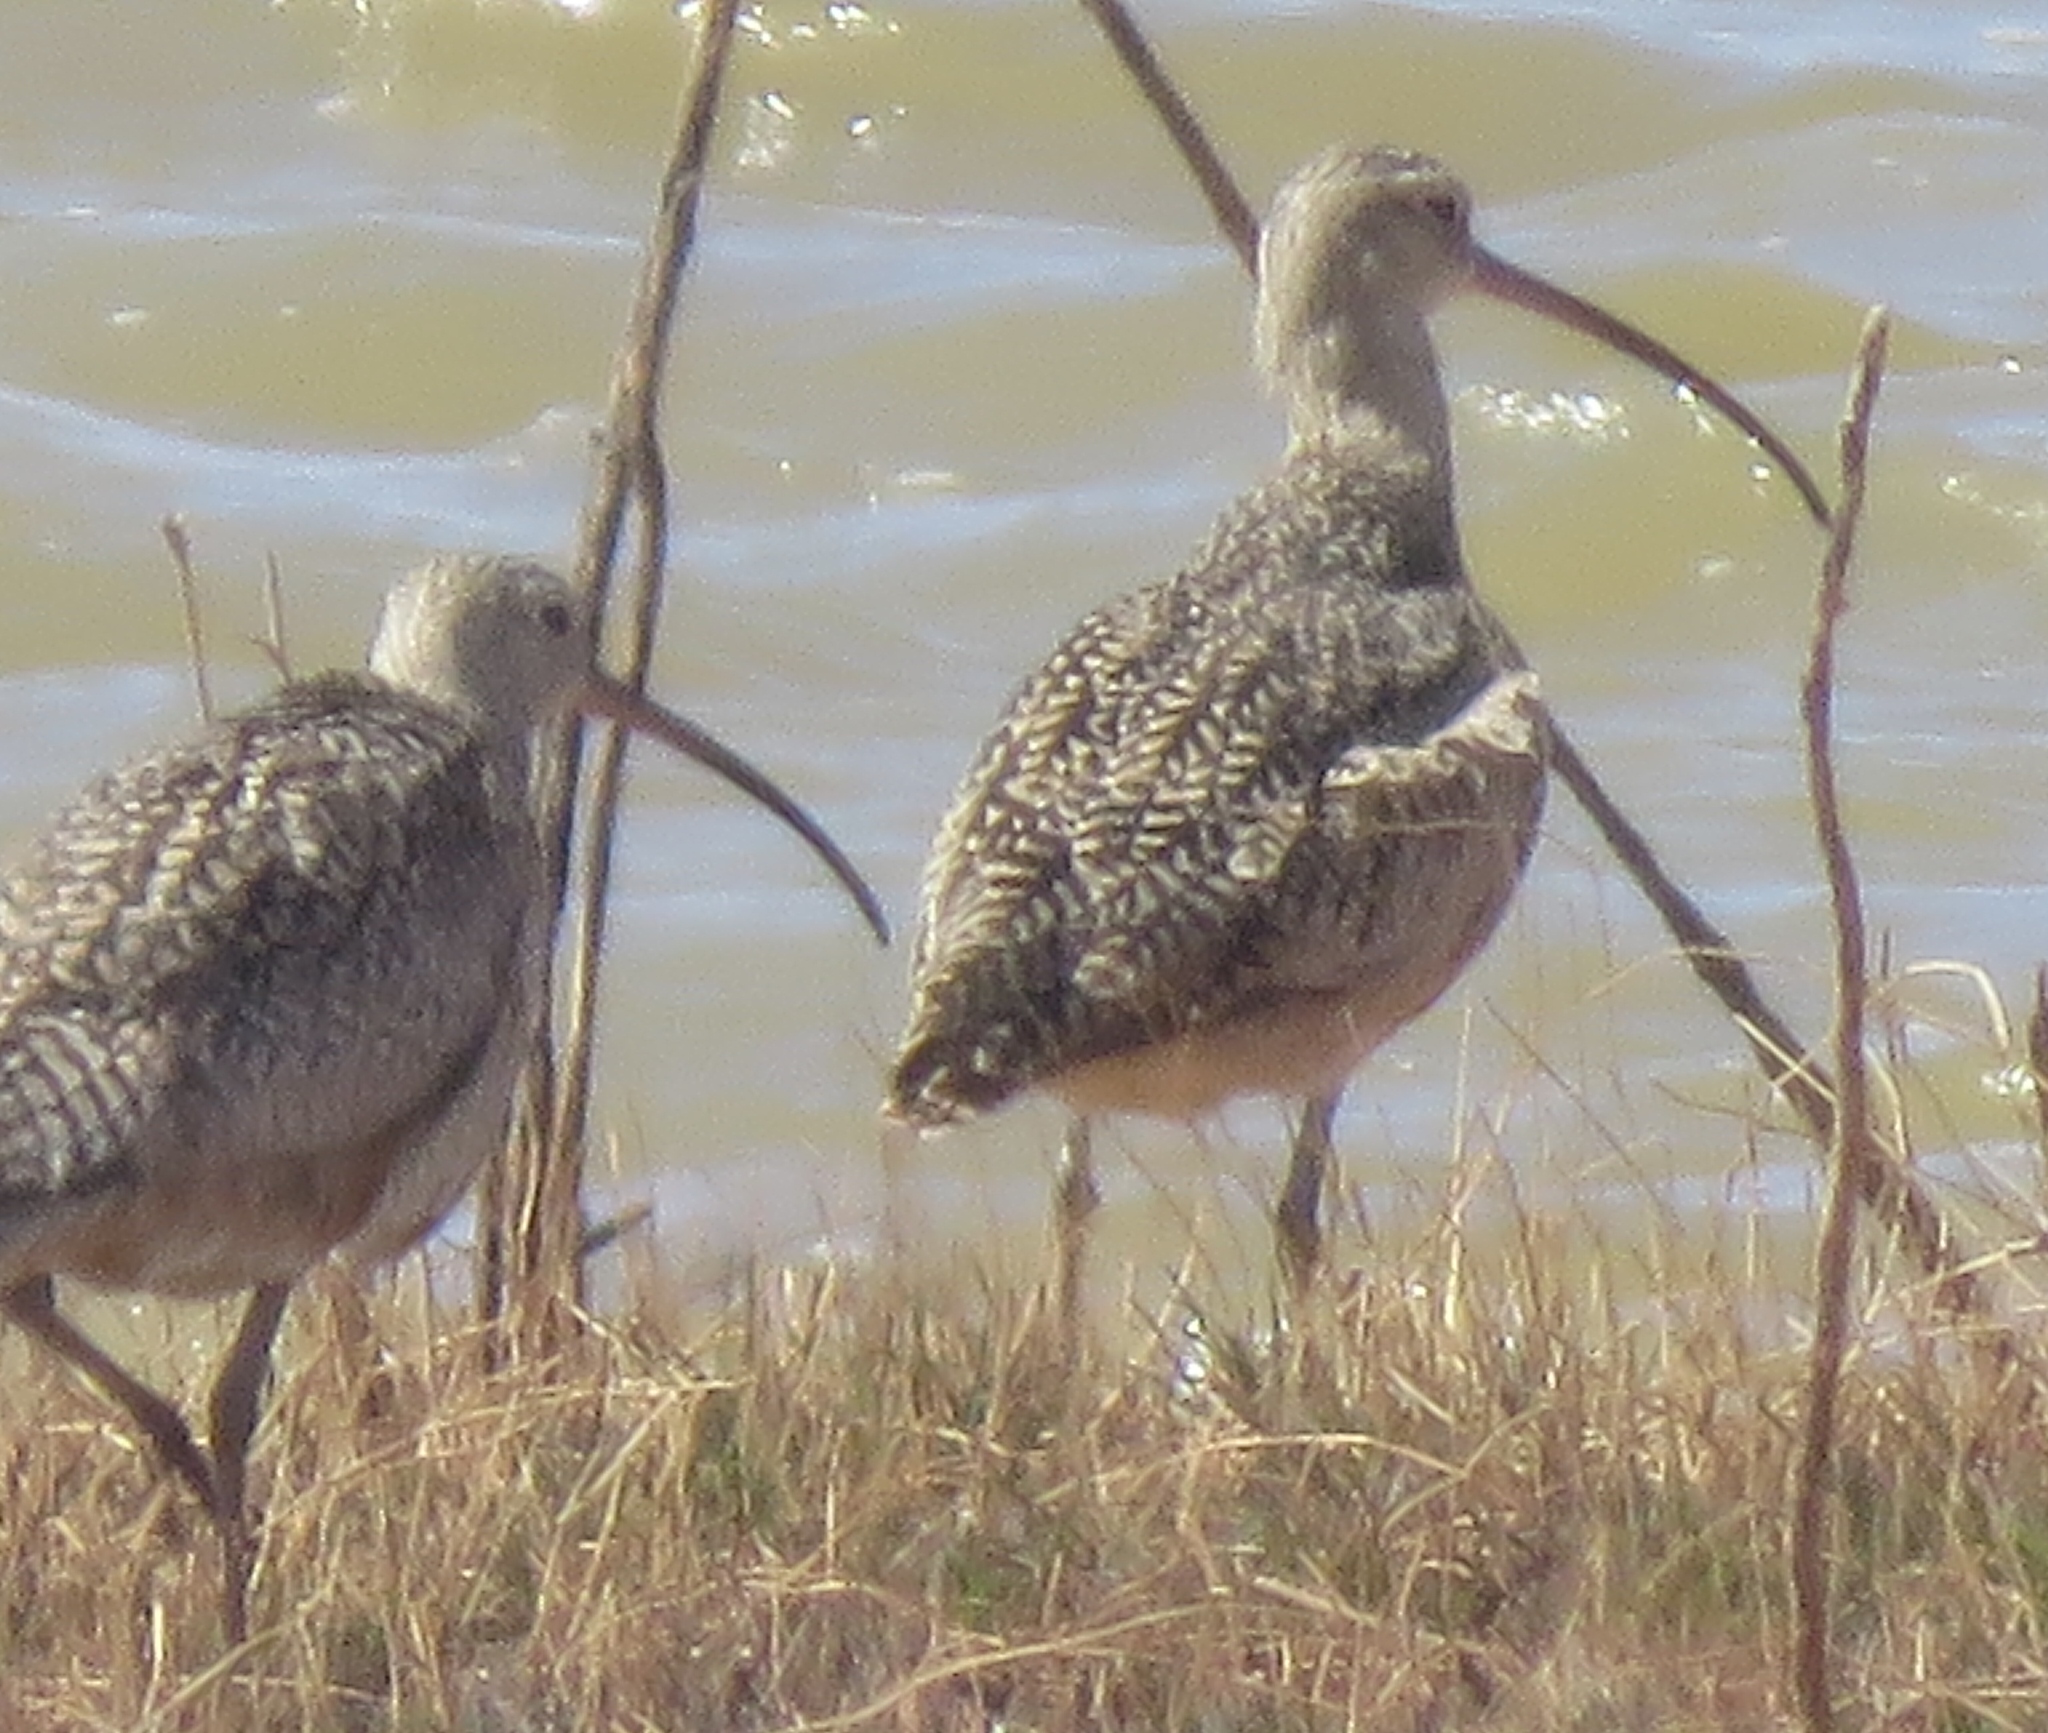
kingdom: Animalia
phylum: Chordata
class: Aves
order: Charadriiformes
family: Scolopacidae
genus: Numenius
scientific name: Numenius americanus
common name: Long-billed curlew
